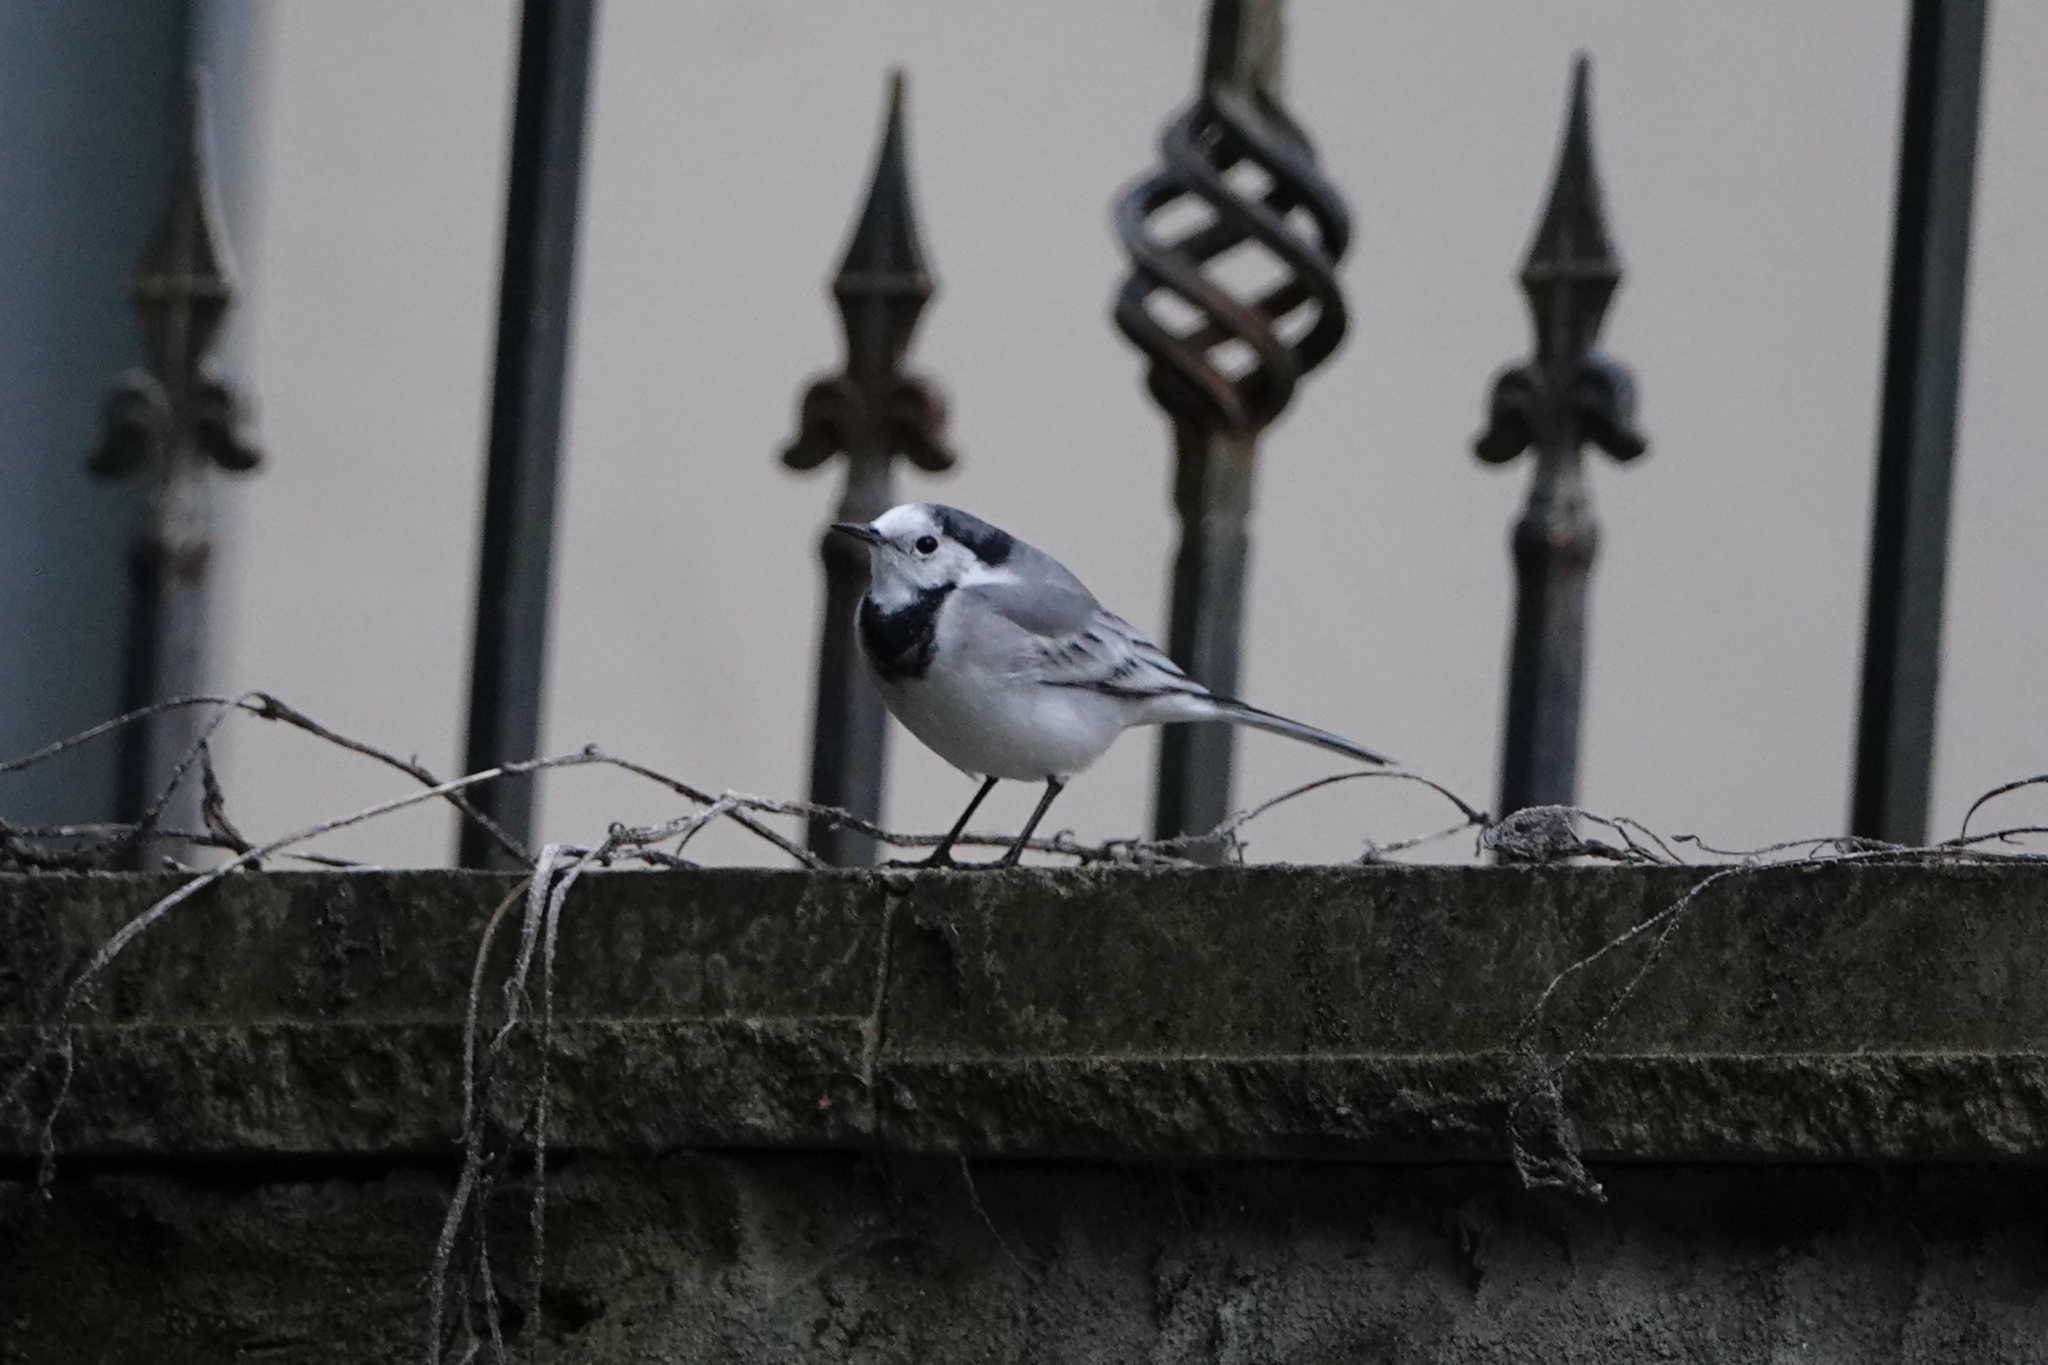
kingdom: Animalia
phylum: Chordata
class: Aves
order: Passeriformes
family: Motacillidae
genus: Motacilla
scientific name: Motacilla alba
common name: White wagtail
